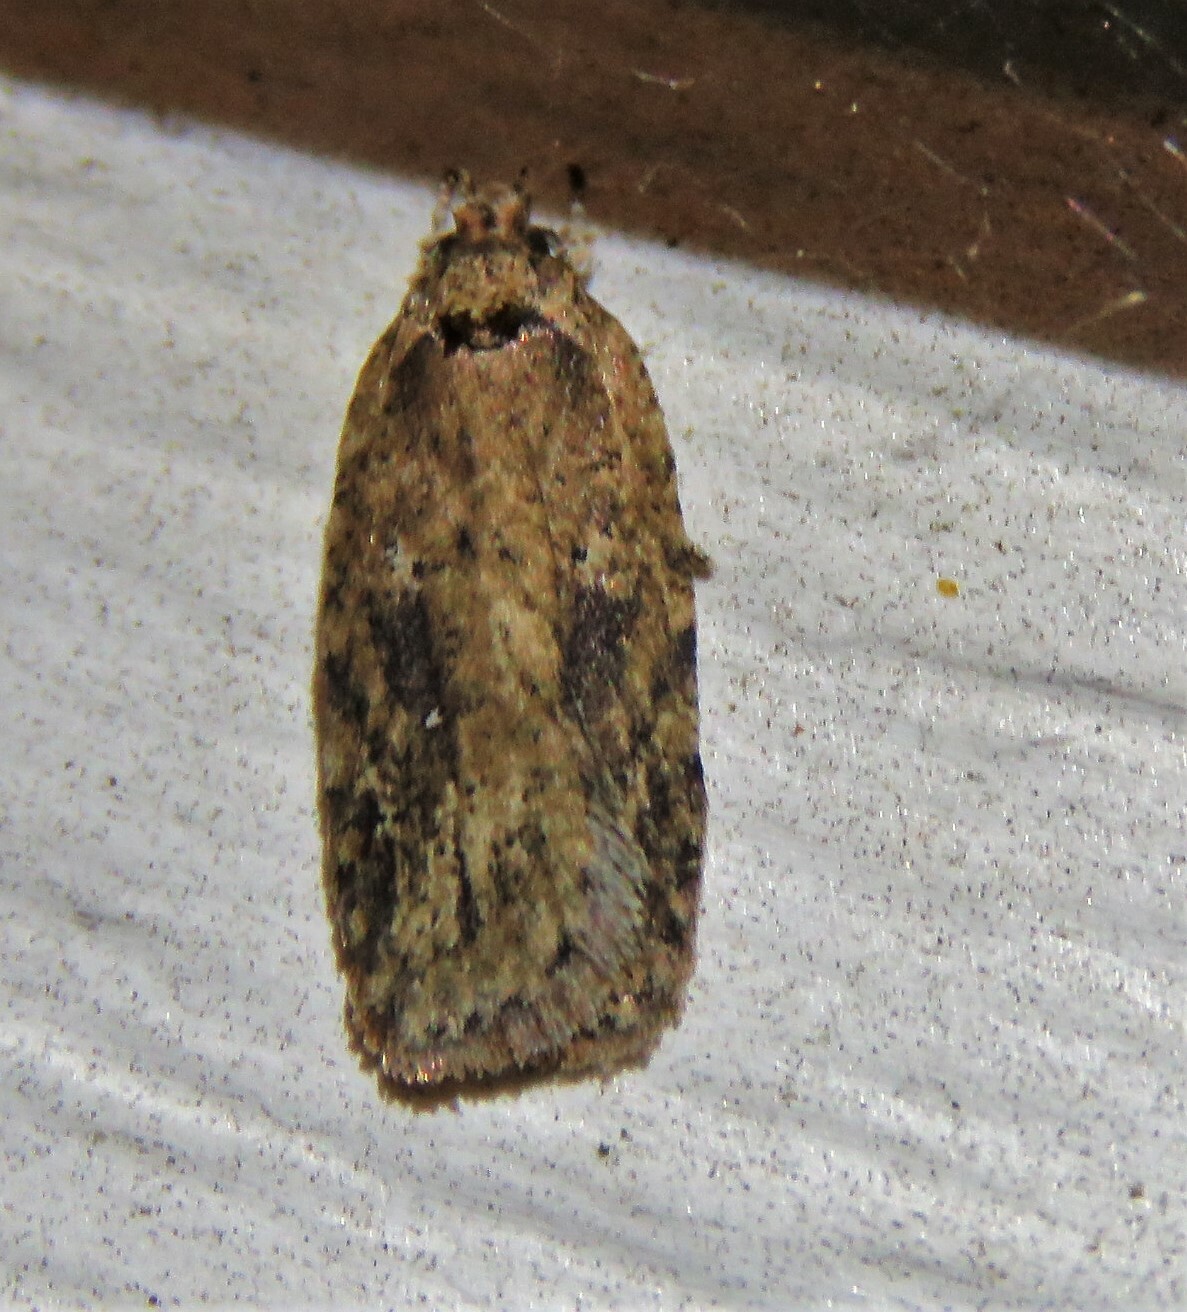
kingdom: Animalia
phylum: Arthropoda
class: Insecta
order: Lepidoptera
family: Depressariidae
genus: Agonopterix
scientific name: Agonopterix pulvipennella
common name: Goldenrod leafffolder
